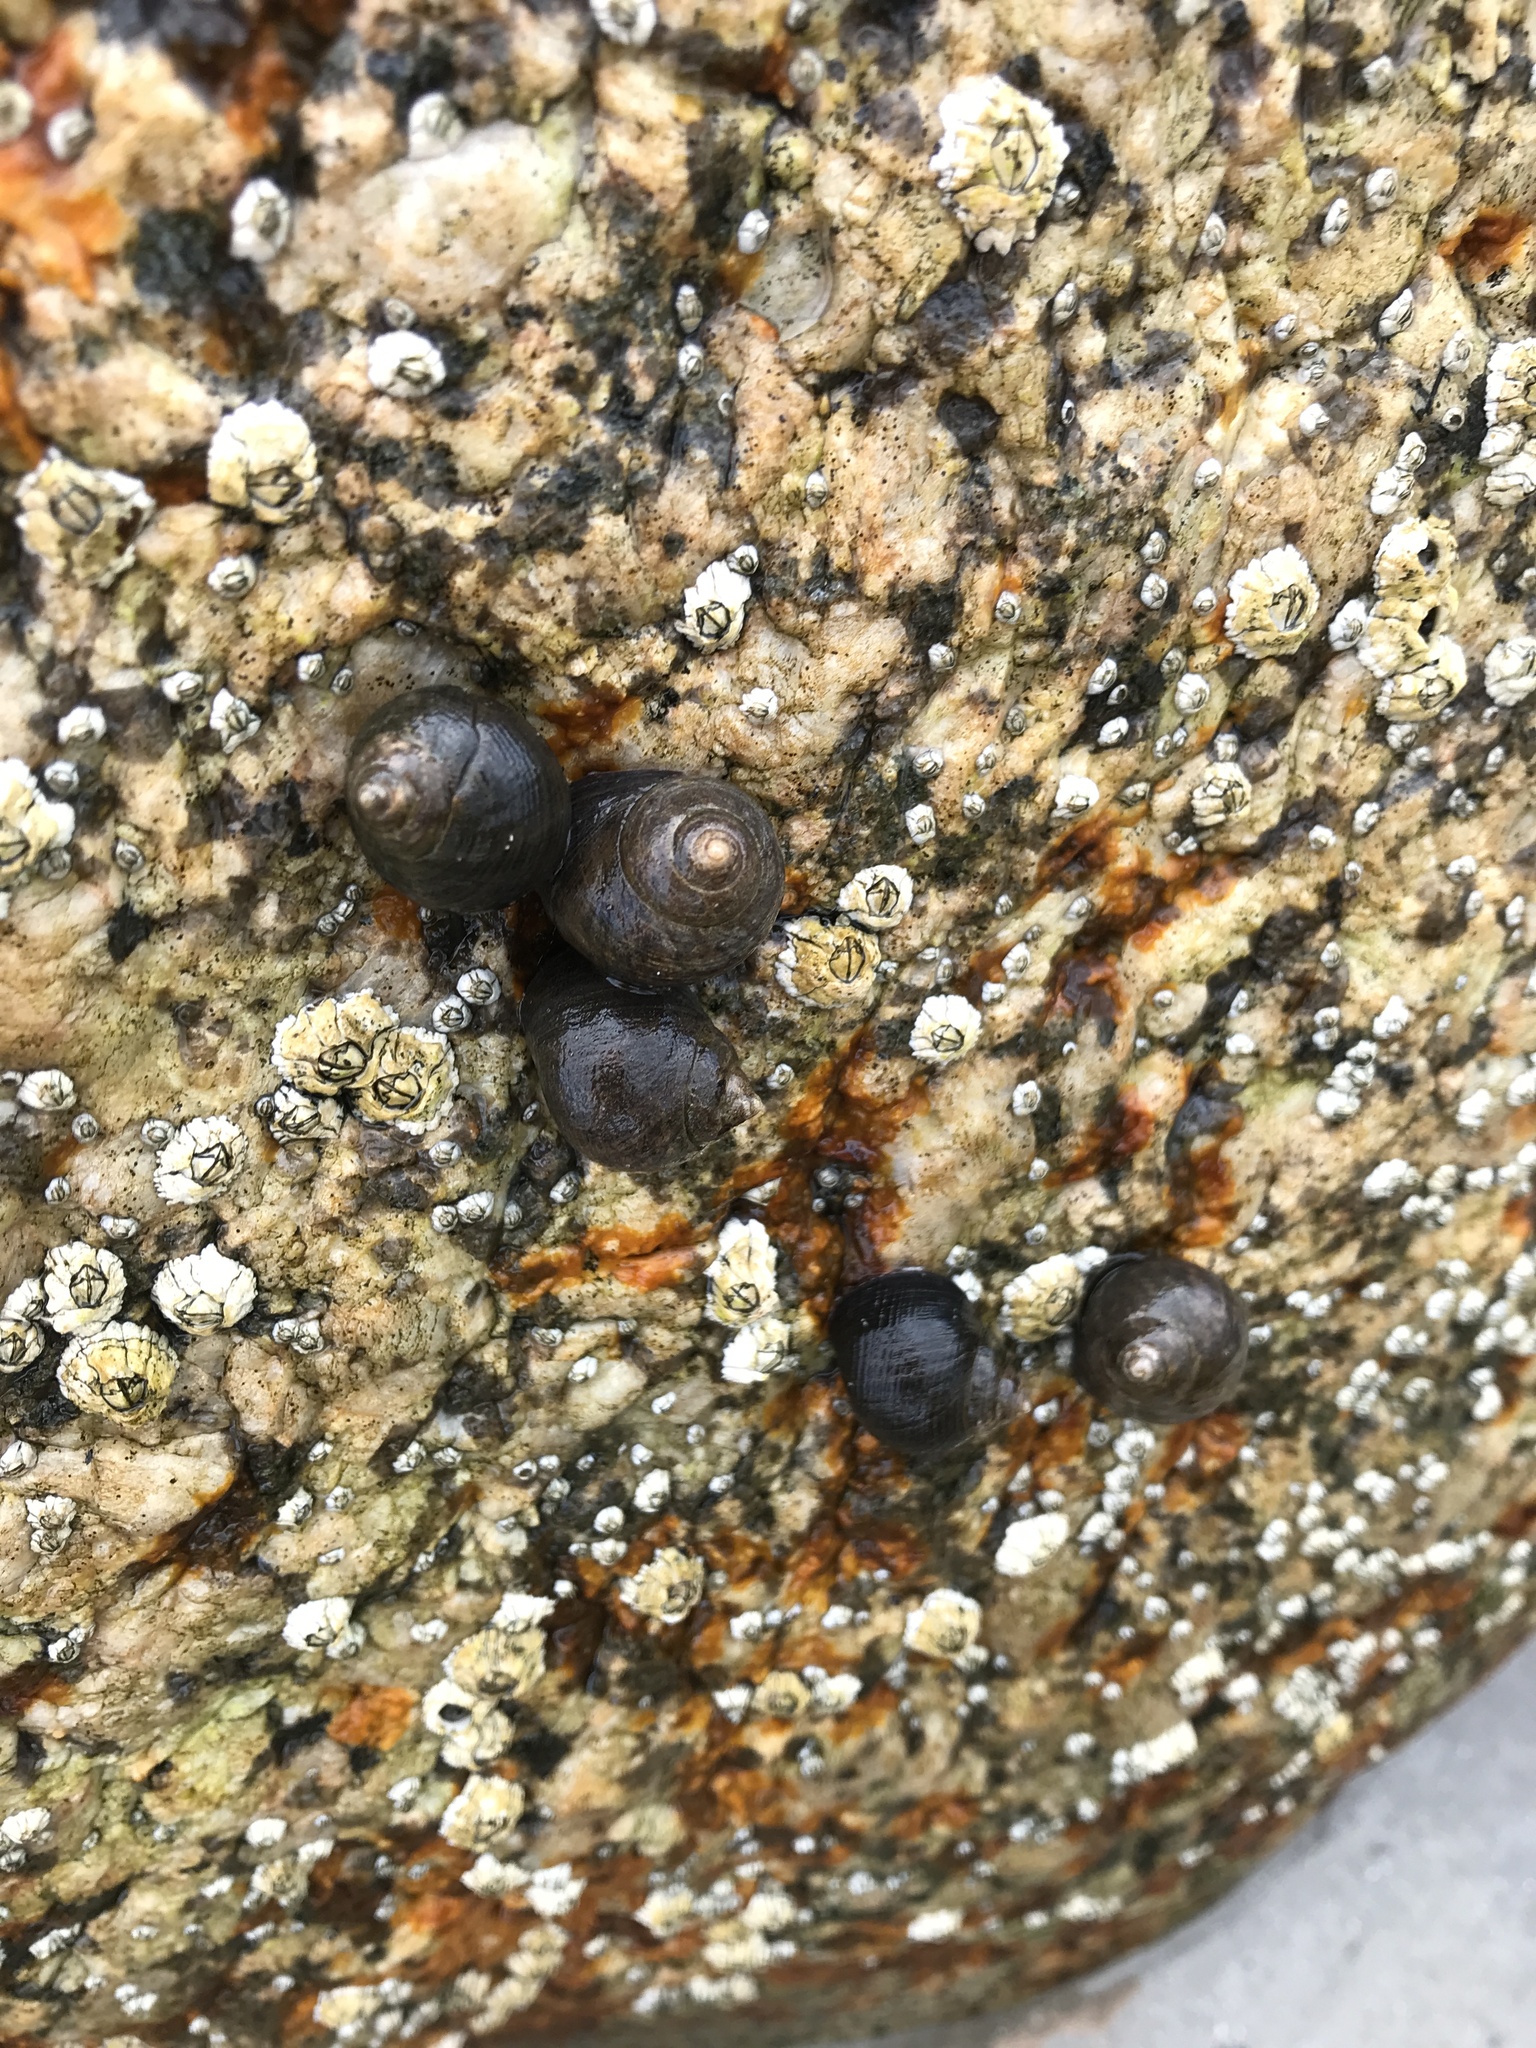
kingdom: Animalia
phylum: Mollusca
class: Gastropoda
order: Littorinimorpha
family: Littorinidae
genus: Littorina
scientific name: Littorina littorea
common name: Common periwinkle
